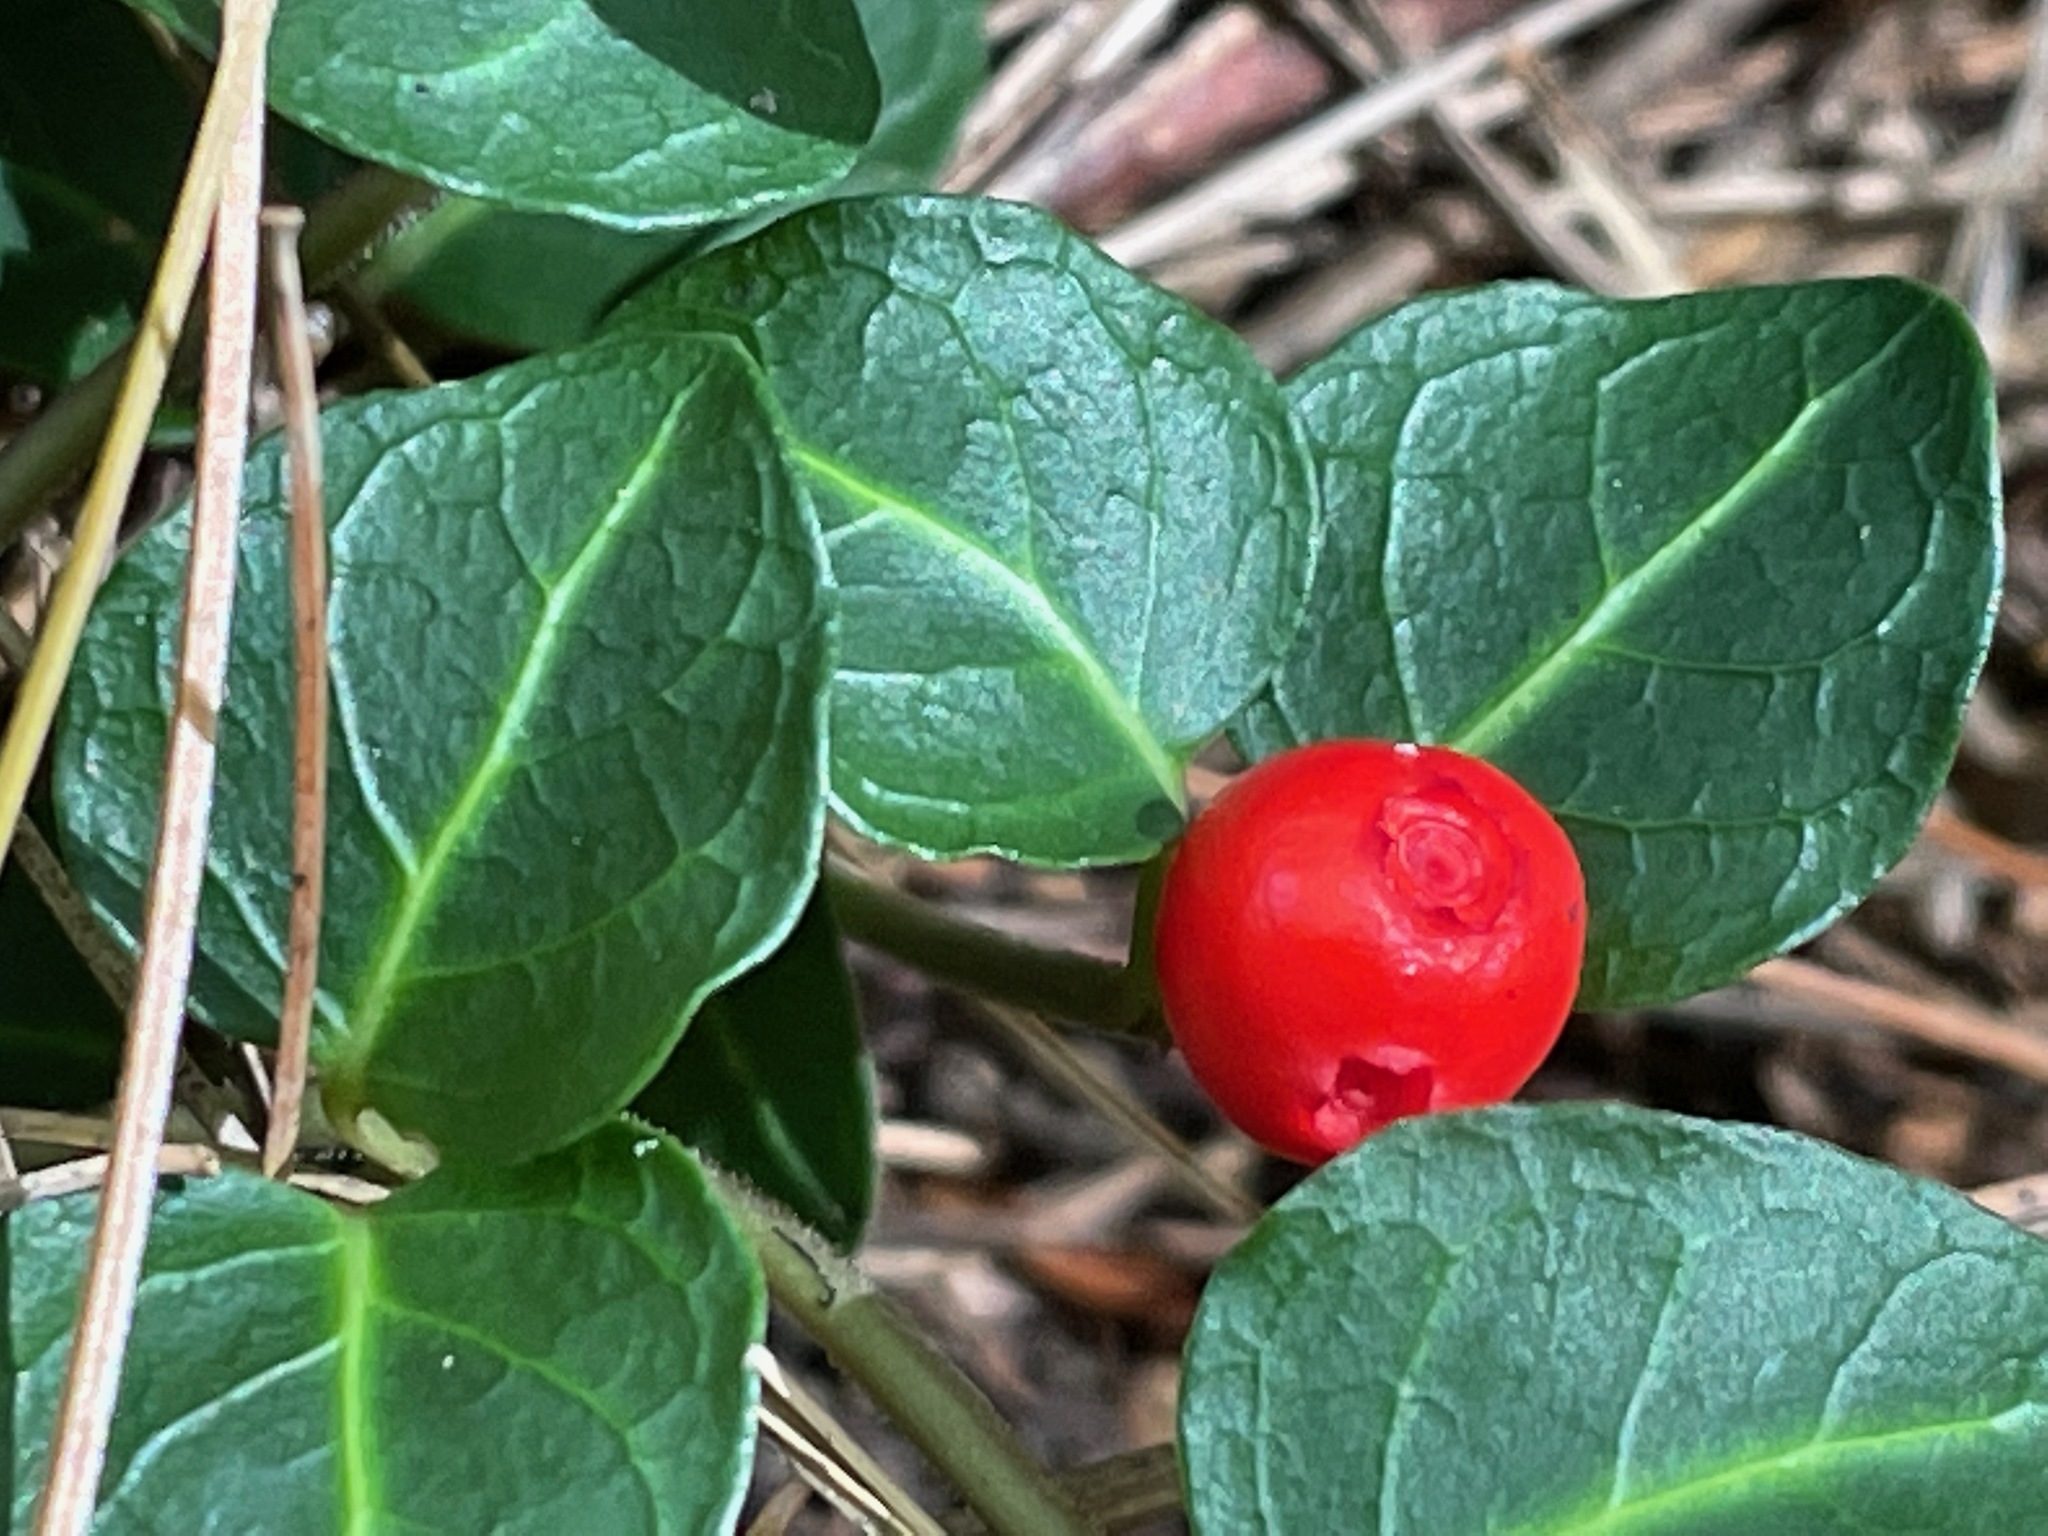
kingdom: Plantae
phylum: Tracheophyta
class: Magnoliopsida
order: Gentianales
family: Rubiaceae
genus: Mitchella
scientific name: Mitchella repens
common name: Partridge-berry
